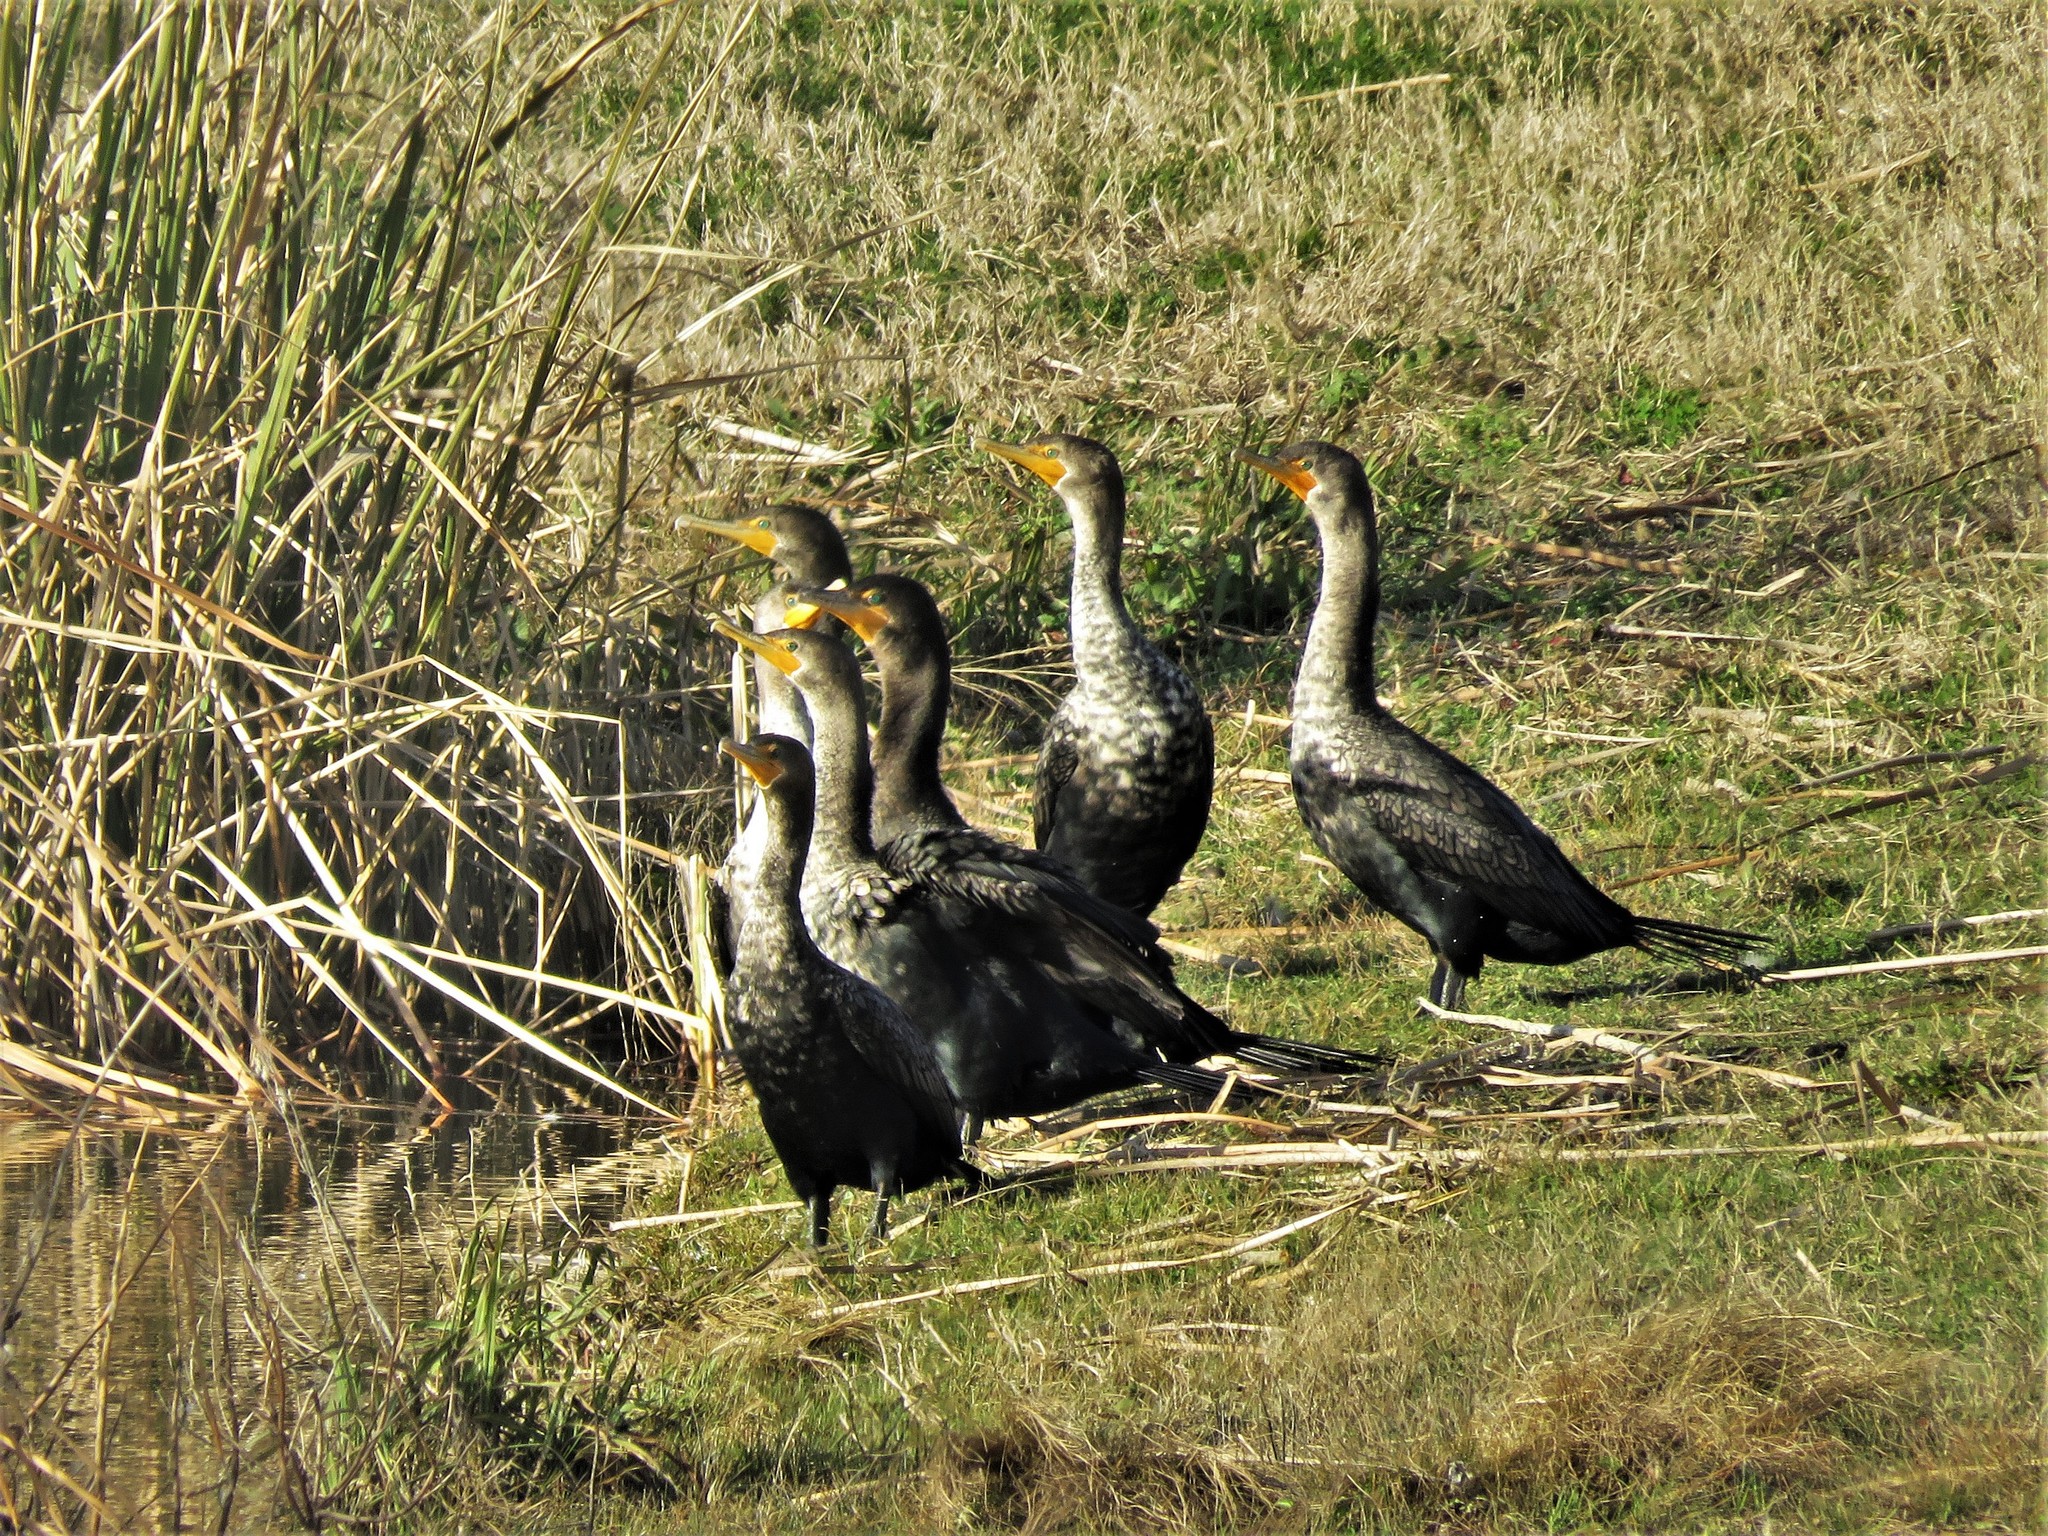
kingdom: Animalia
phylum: Chordata
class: Aves
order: Suliformes
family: Phalacrocoracidae
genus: Phalacrocorax
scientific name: Phalacrocorax auritus
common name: Double-crested cormorant
